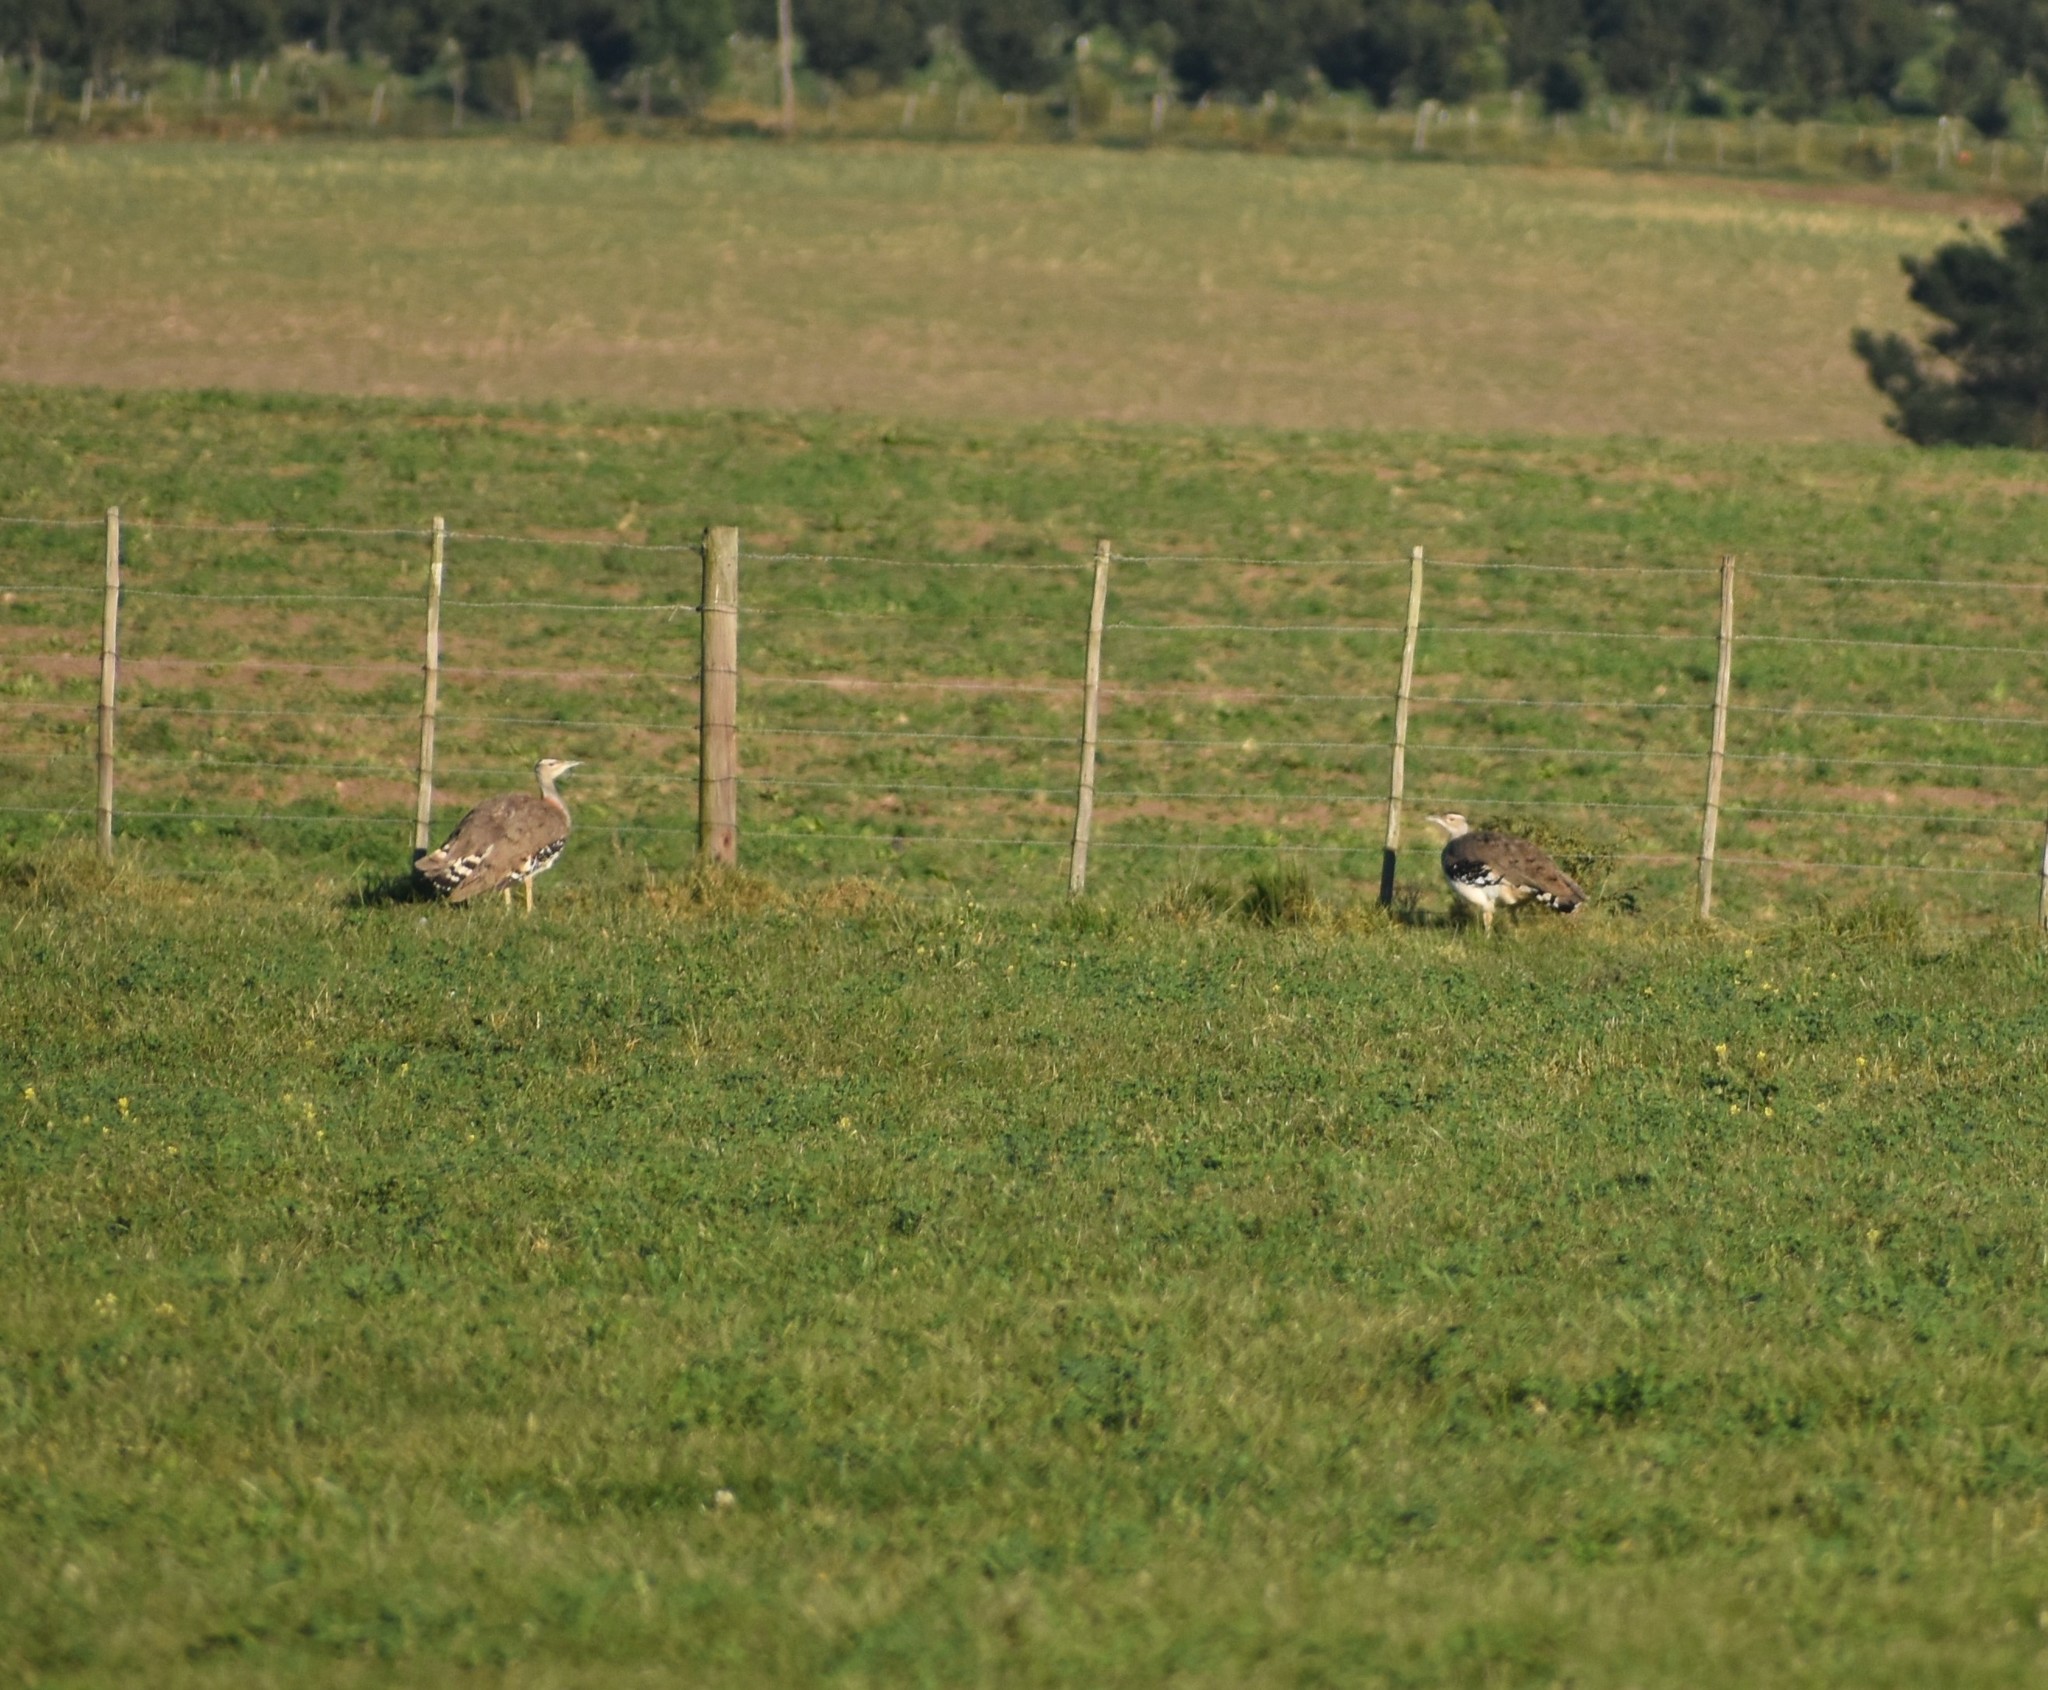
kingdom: Animalia
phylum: Chordata
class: Aves
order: Otidiformes
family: Otididae
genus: Neotis
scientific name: Neotis denhami
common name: Denham's bustard
